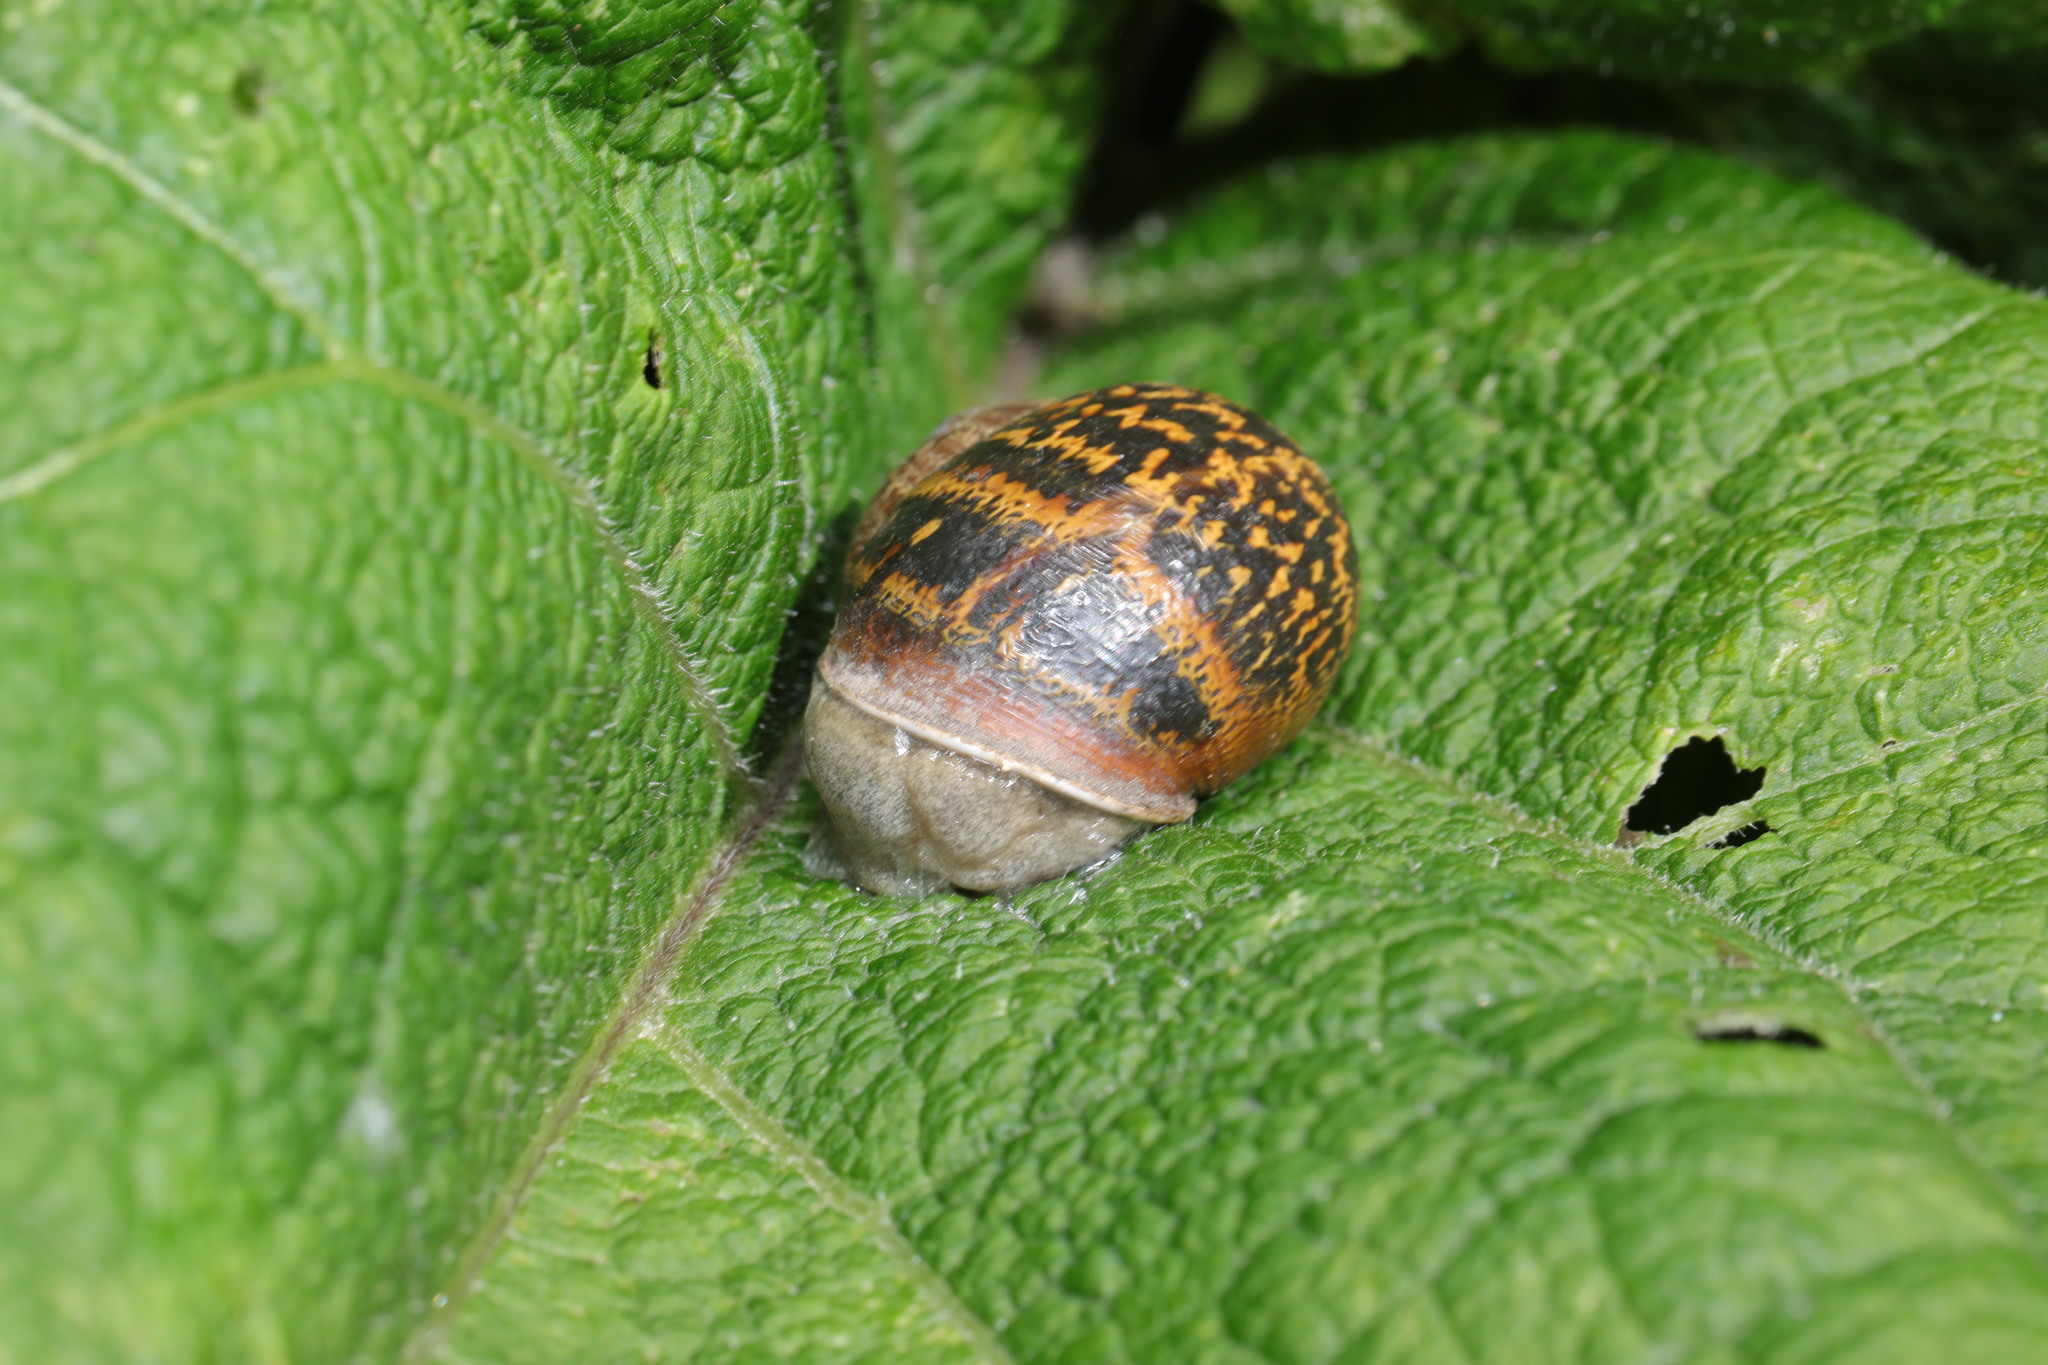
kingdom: Animalia
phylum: Mollusca
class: Gastropoda
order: Stylommatophora
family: Helicidae
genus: Cornu
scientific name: Cornu aspersum
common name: Brown garden snail
